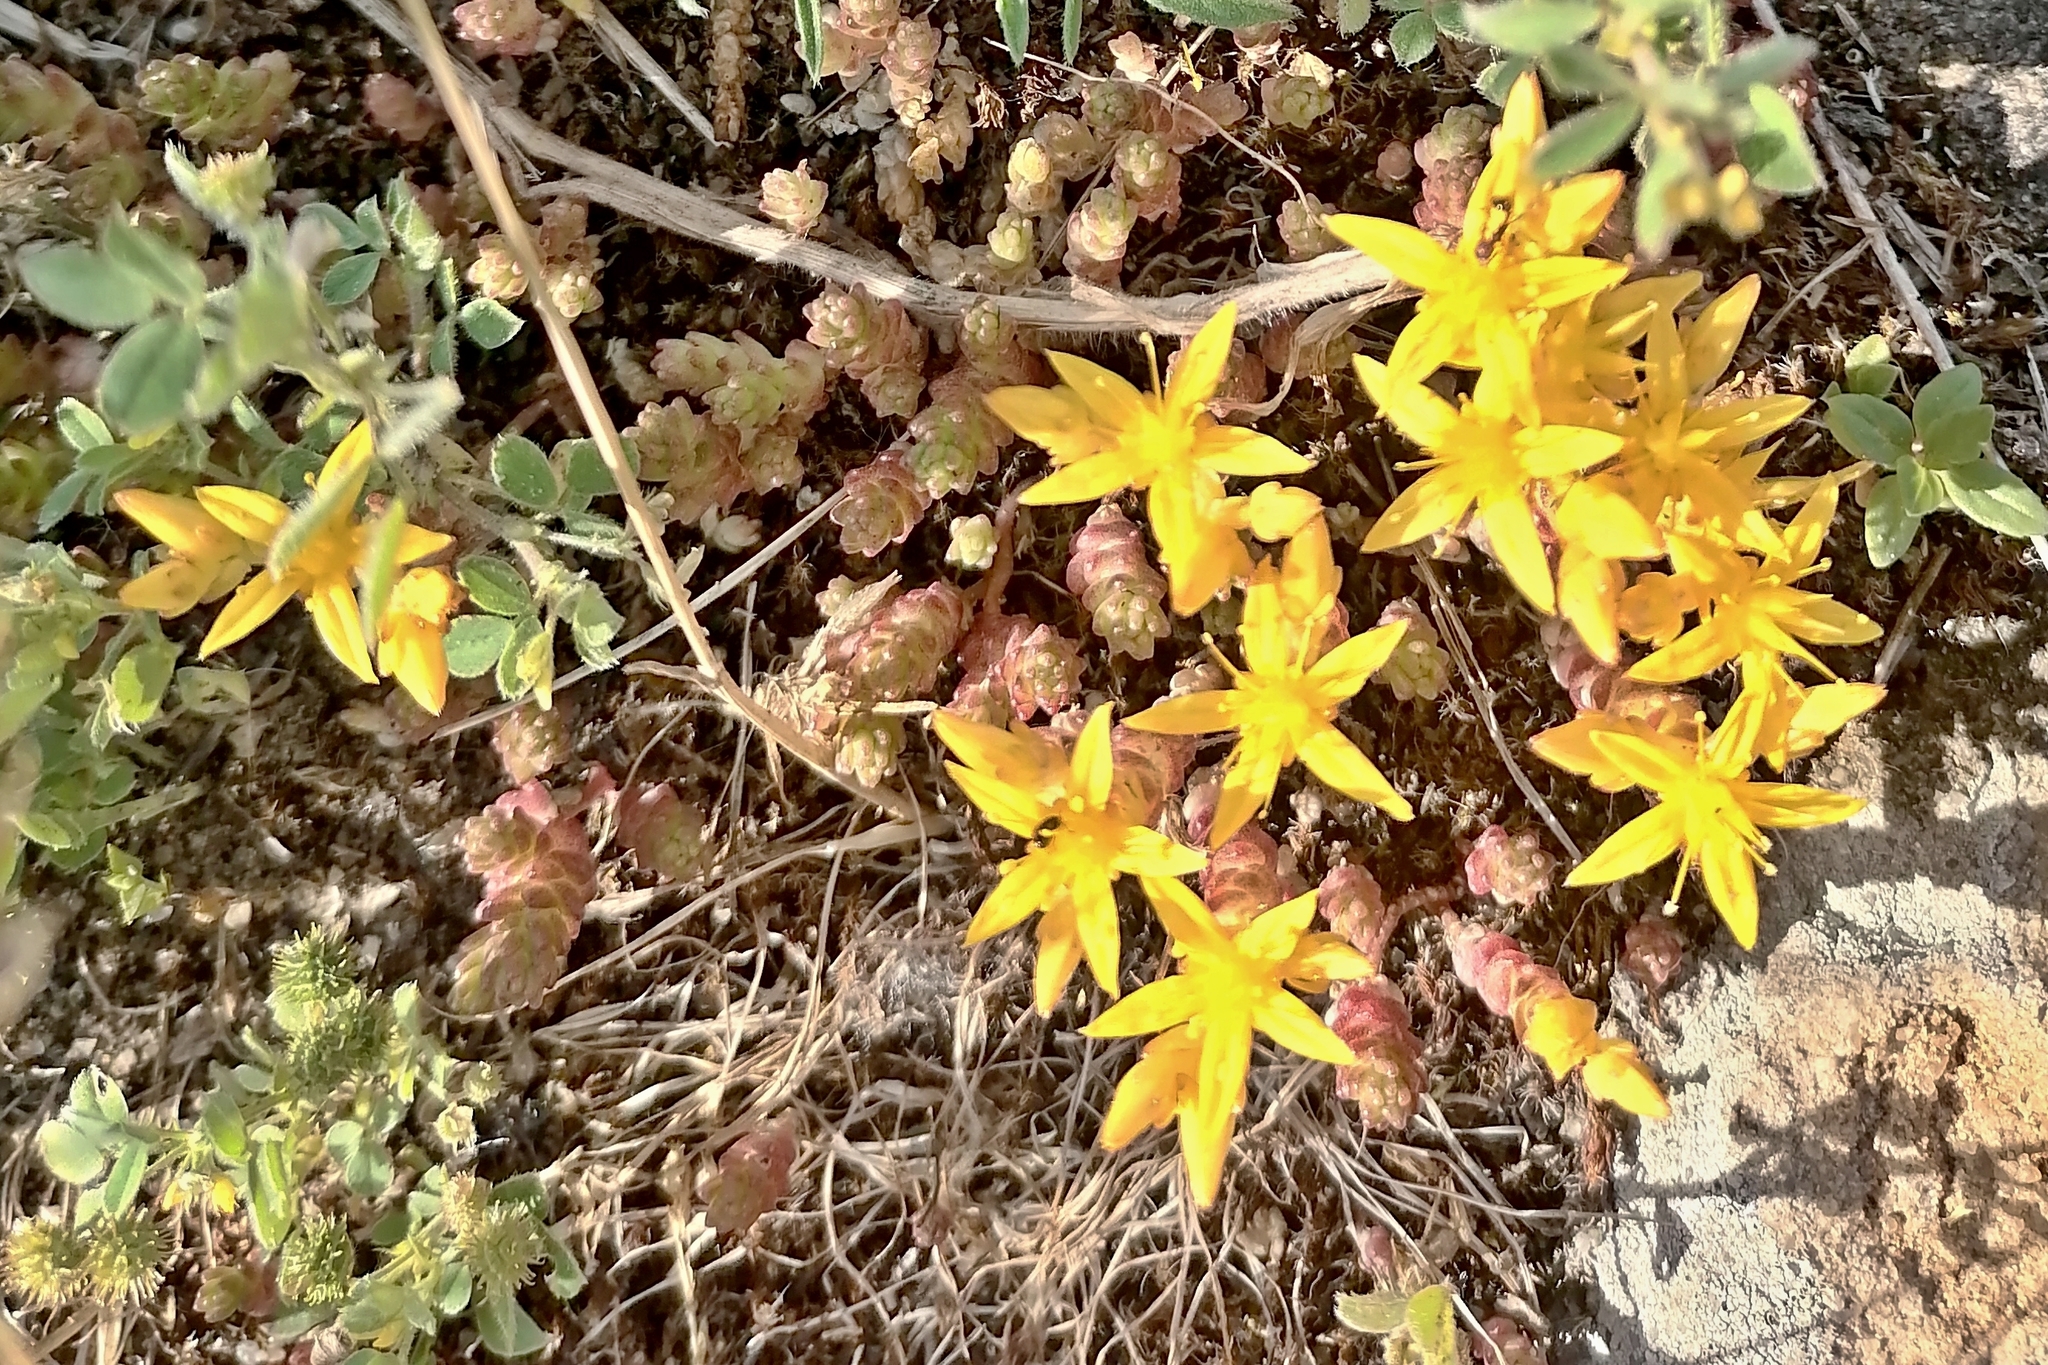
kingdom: Plantae
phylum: Tracheophyta
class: Magnoliopsida
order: Saxifragales
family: Crassulaceae
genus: Sedum
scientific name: Sedum acre
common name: Biting stonecrop
